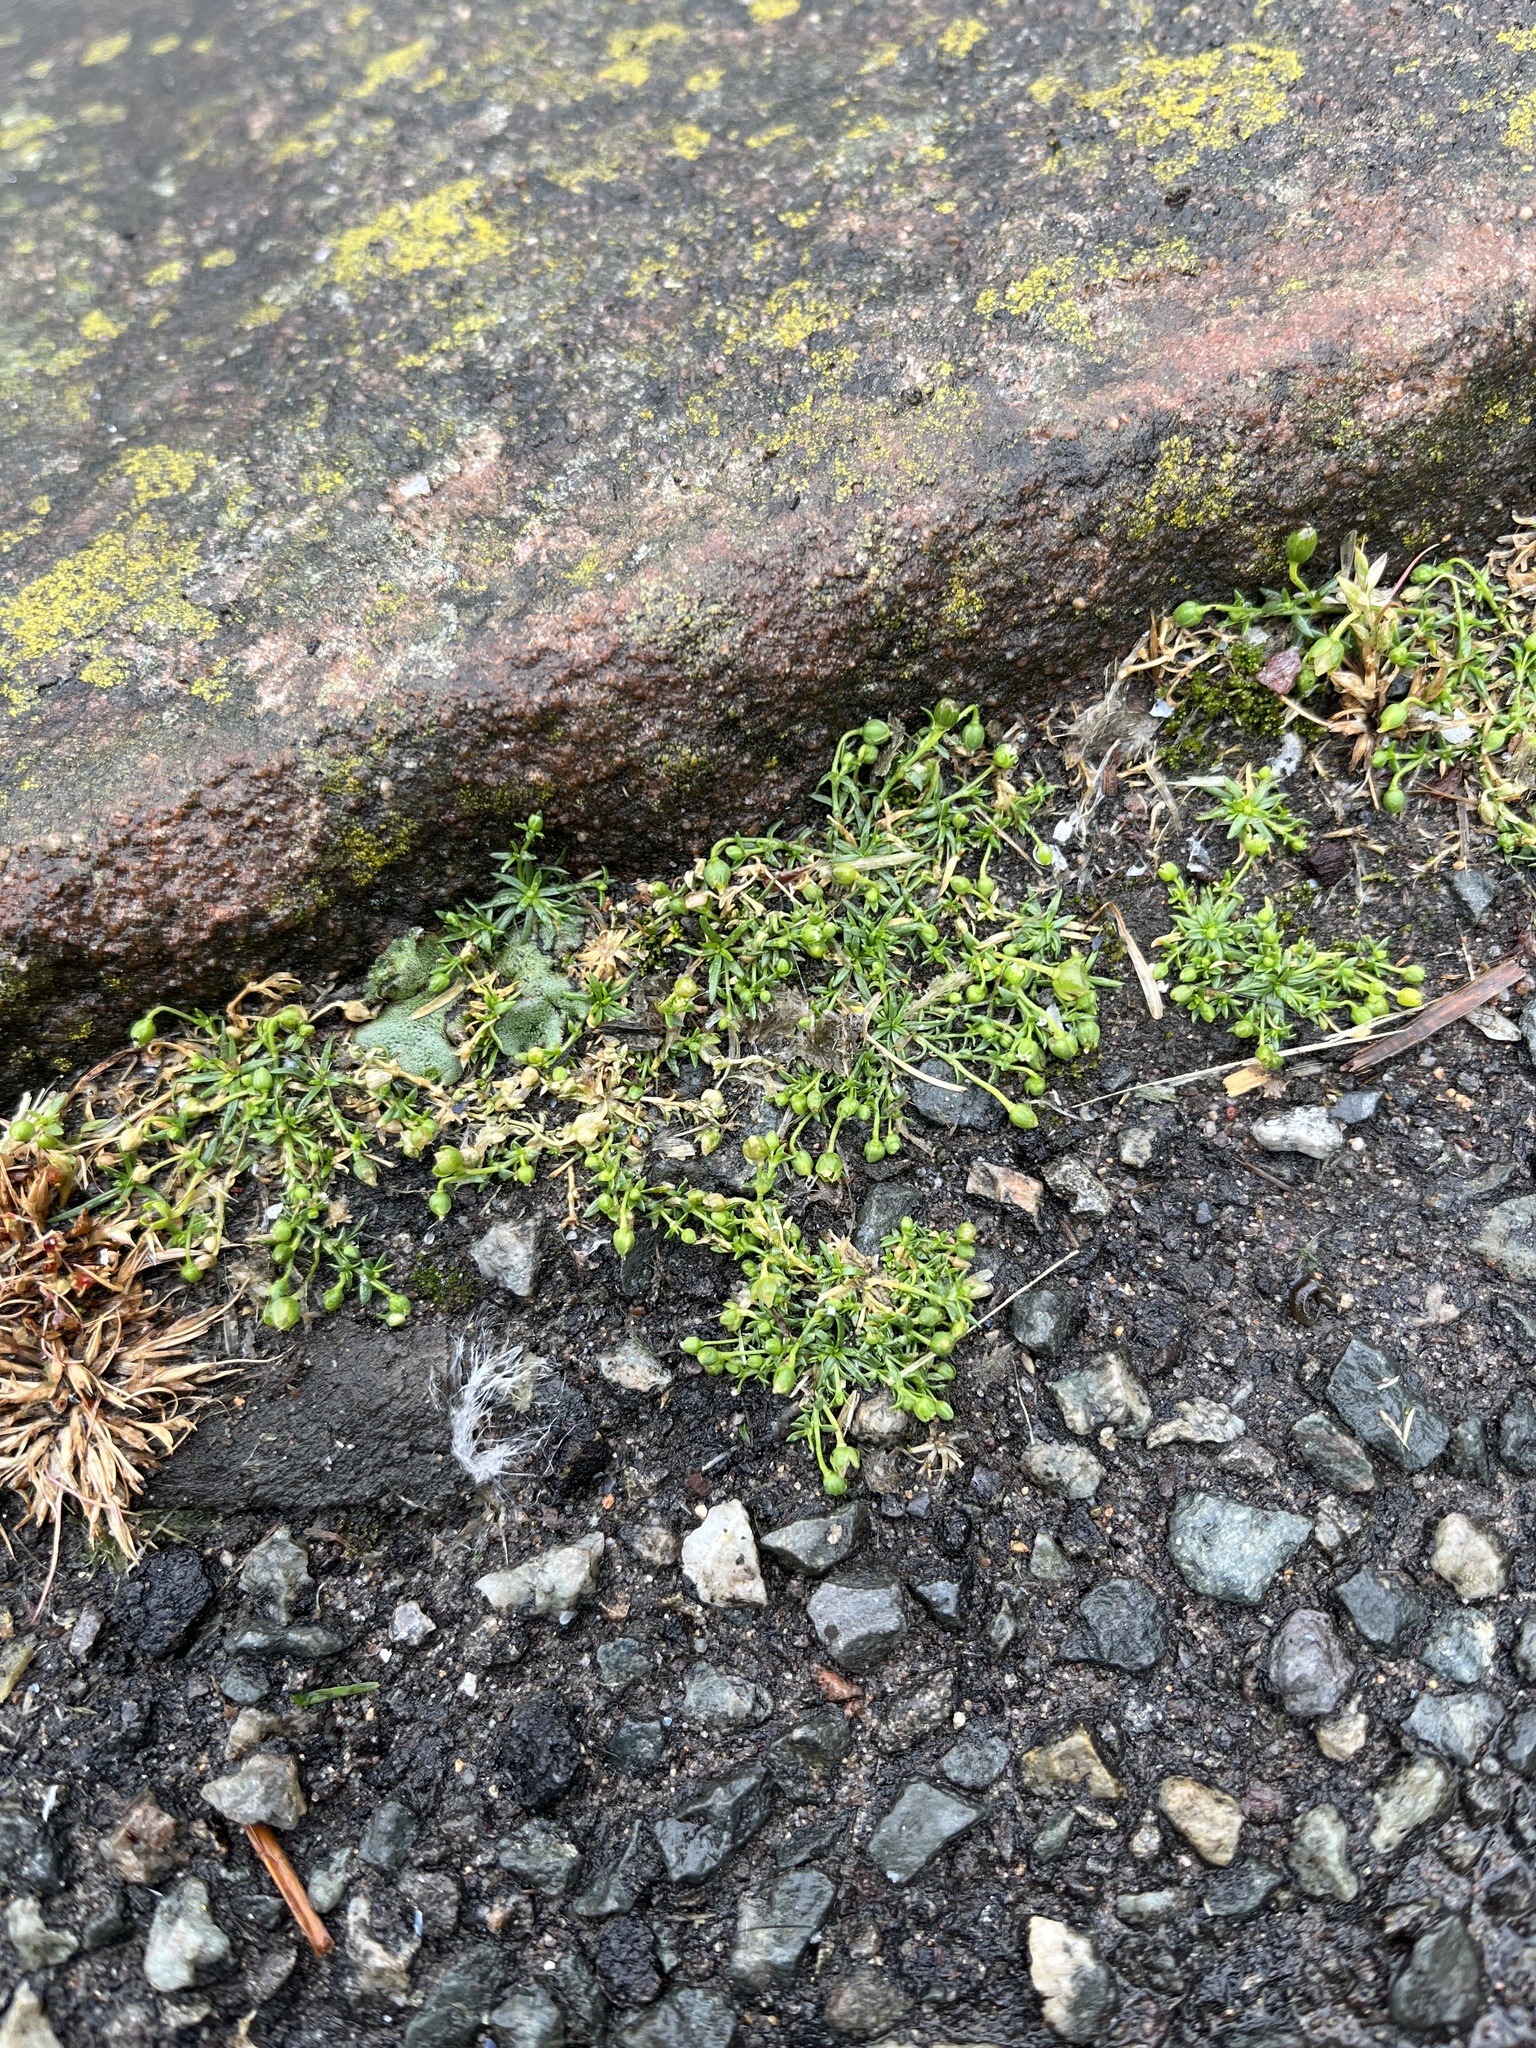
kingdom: Plantae
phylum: Tracheophyta
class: Magnoliopsida
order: Caryophyllales
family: Caryophyllaceae
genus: Sagina
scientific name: Sagina procumbens
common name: Procumbent pearlwort
